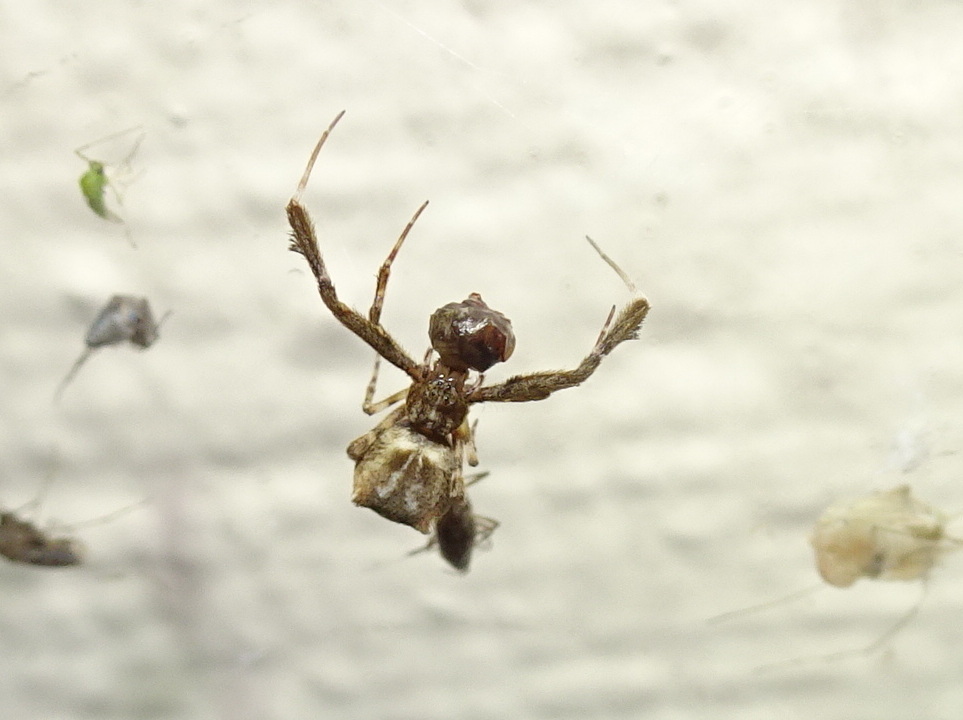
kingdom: Animalia
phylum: Arthropoda
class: Arachnida
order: Araneae
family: Uloboridae
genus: Uloborus
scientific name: Uloborus glomosus
